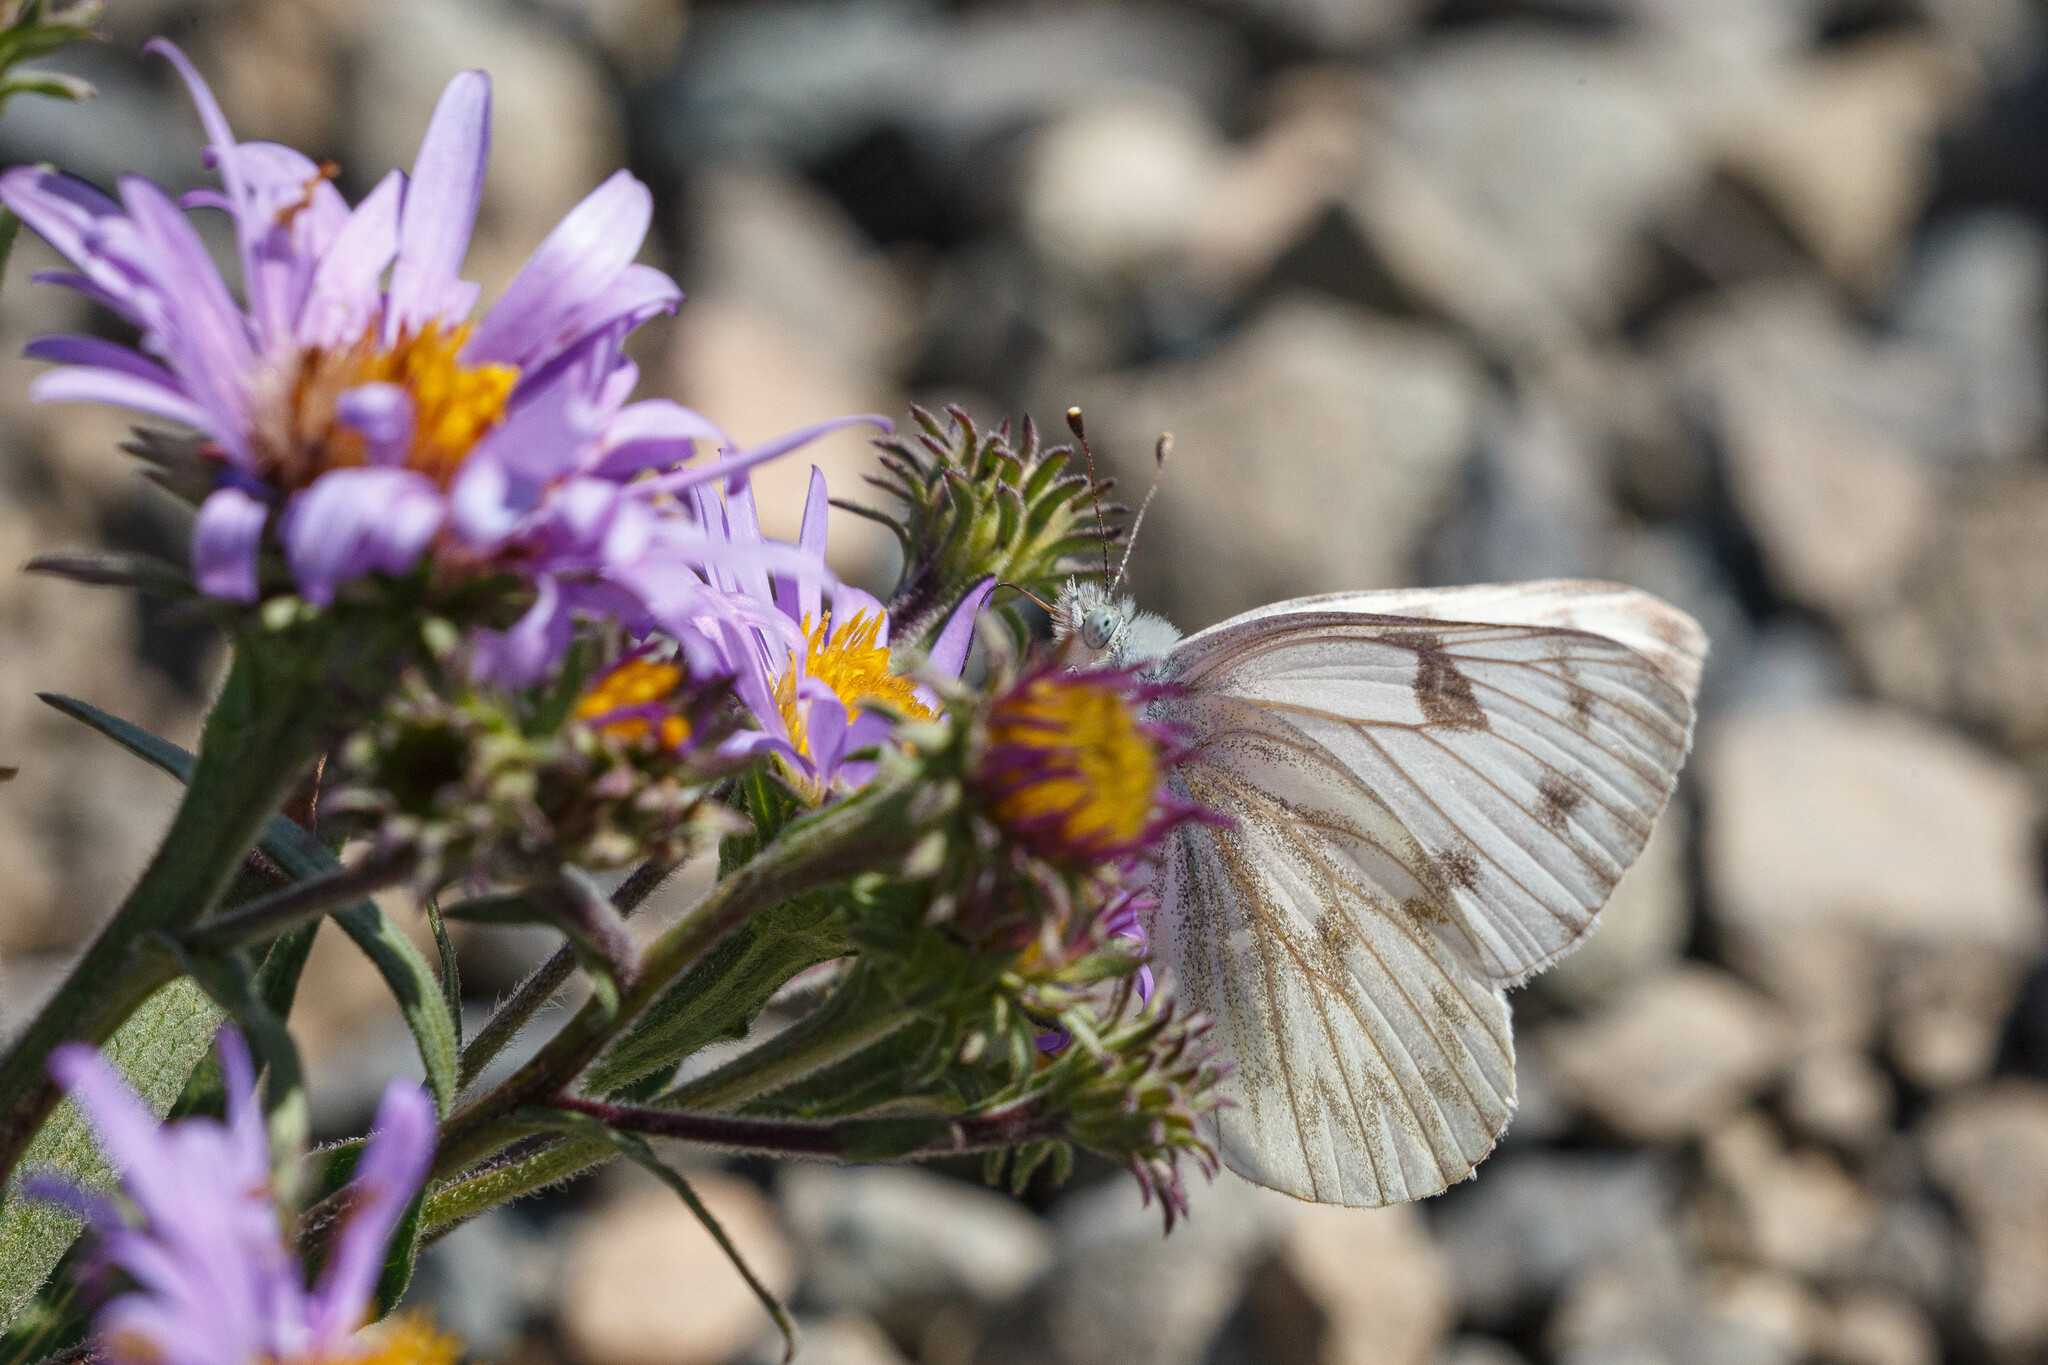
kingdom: Animalia
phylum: Arthropoda
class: Insecta
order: Lepidoptera
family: Pieridae
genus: Pontia
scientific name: Pontia occidentalis
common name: Western white
